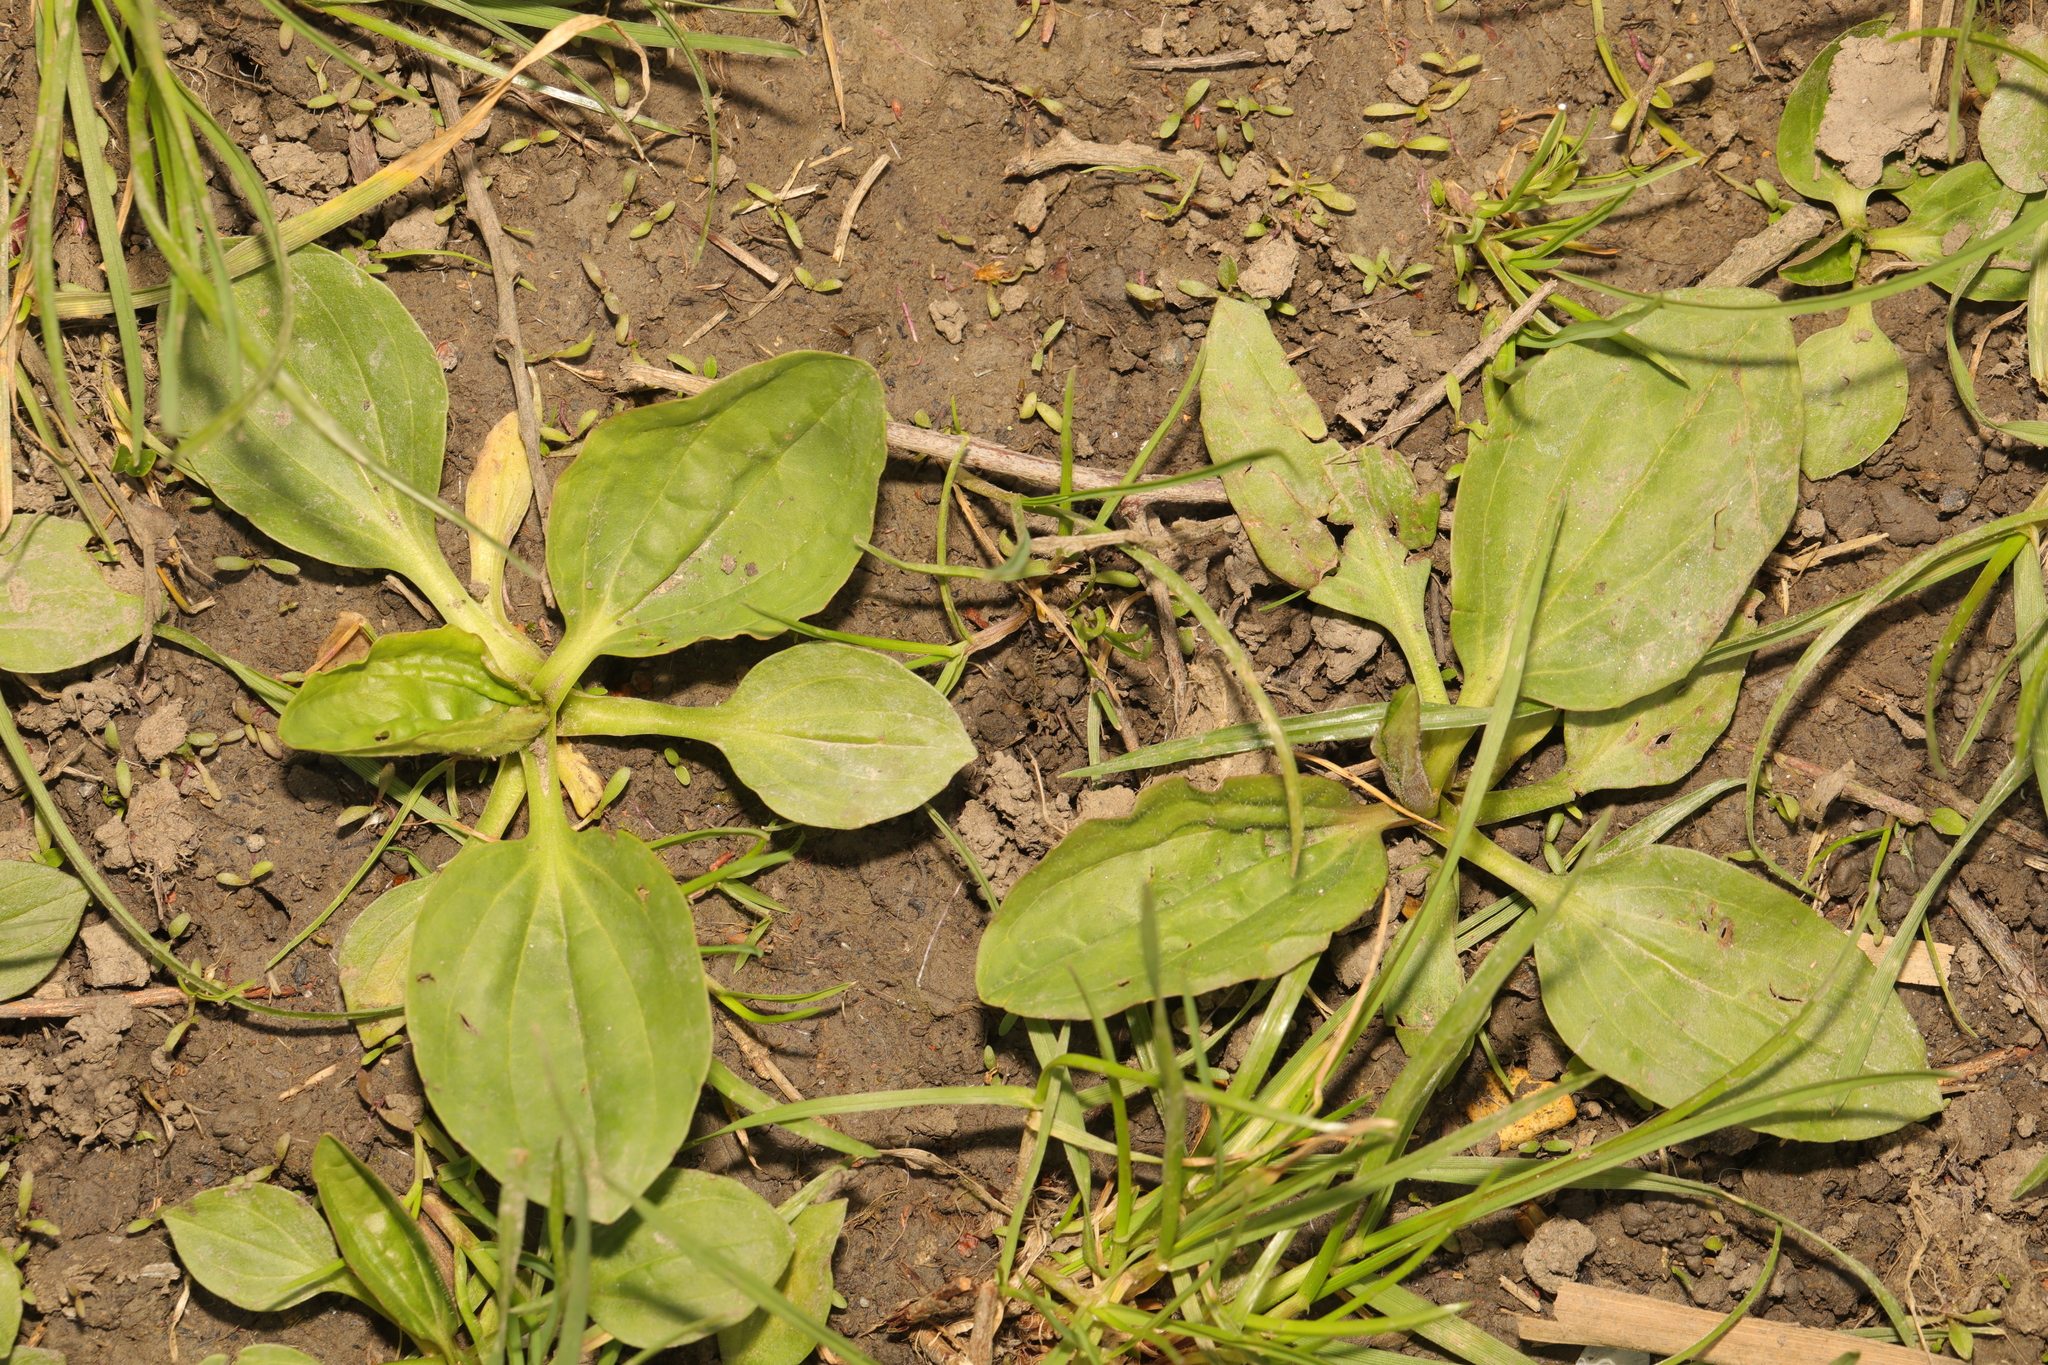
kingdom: Plantae
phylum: Tracheophyta
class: Magnoliopsida
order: Lamiales
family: Plantaginaceae
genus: Plantago
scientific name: Plantago major
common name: Common plantain
